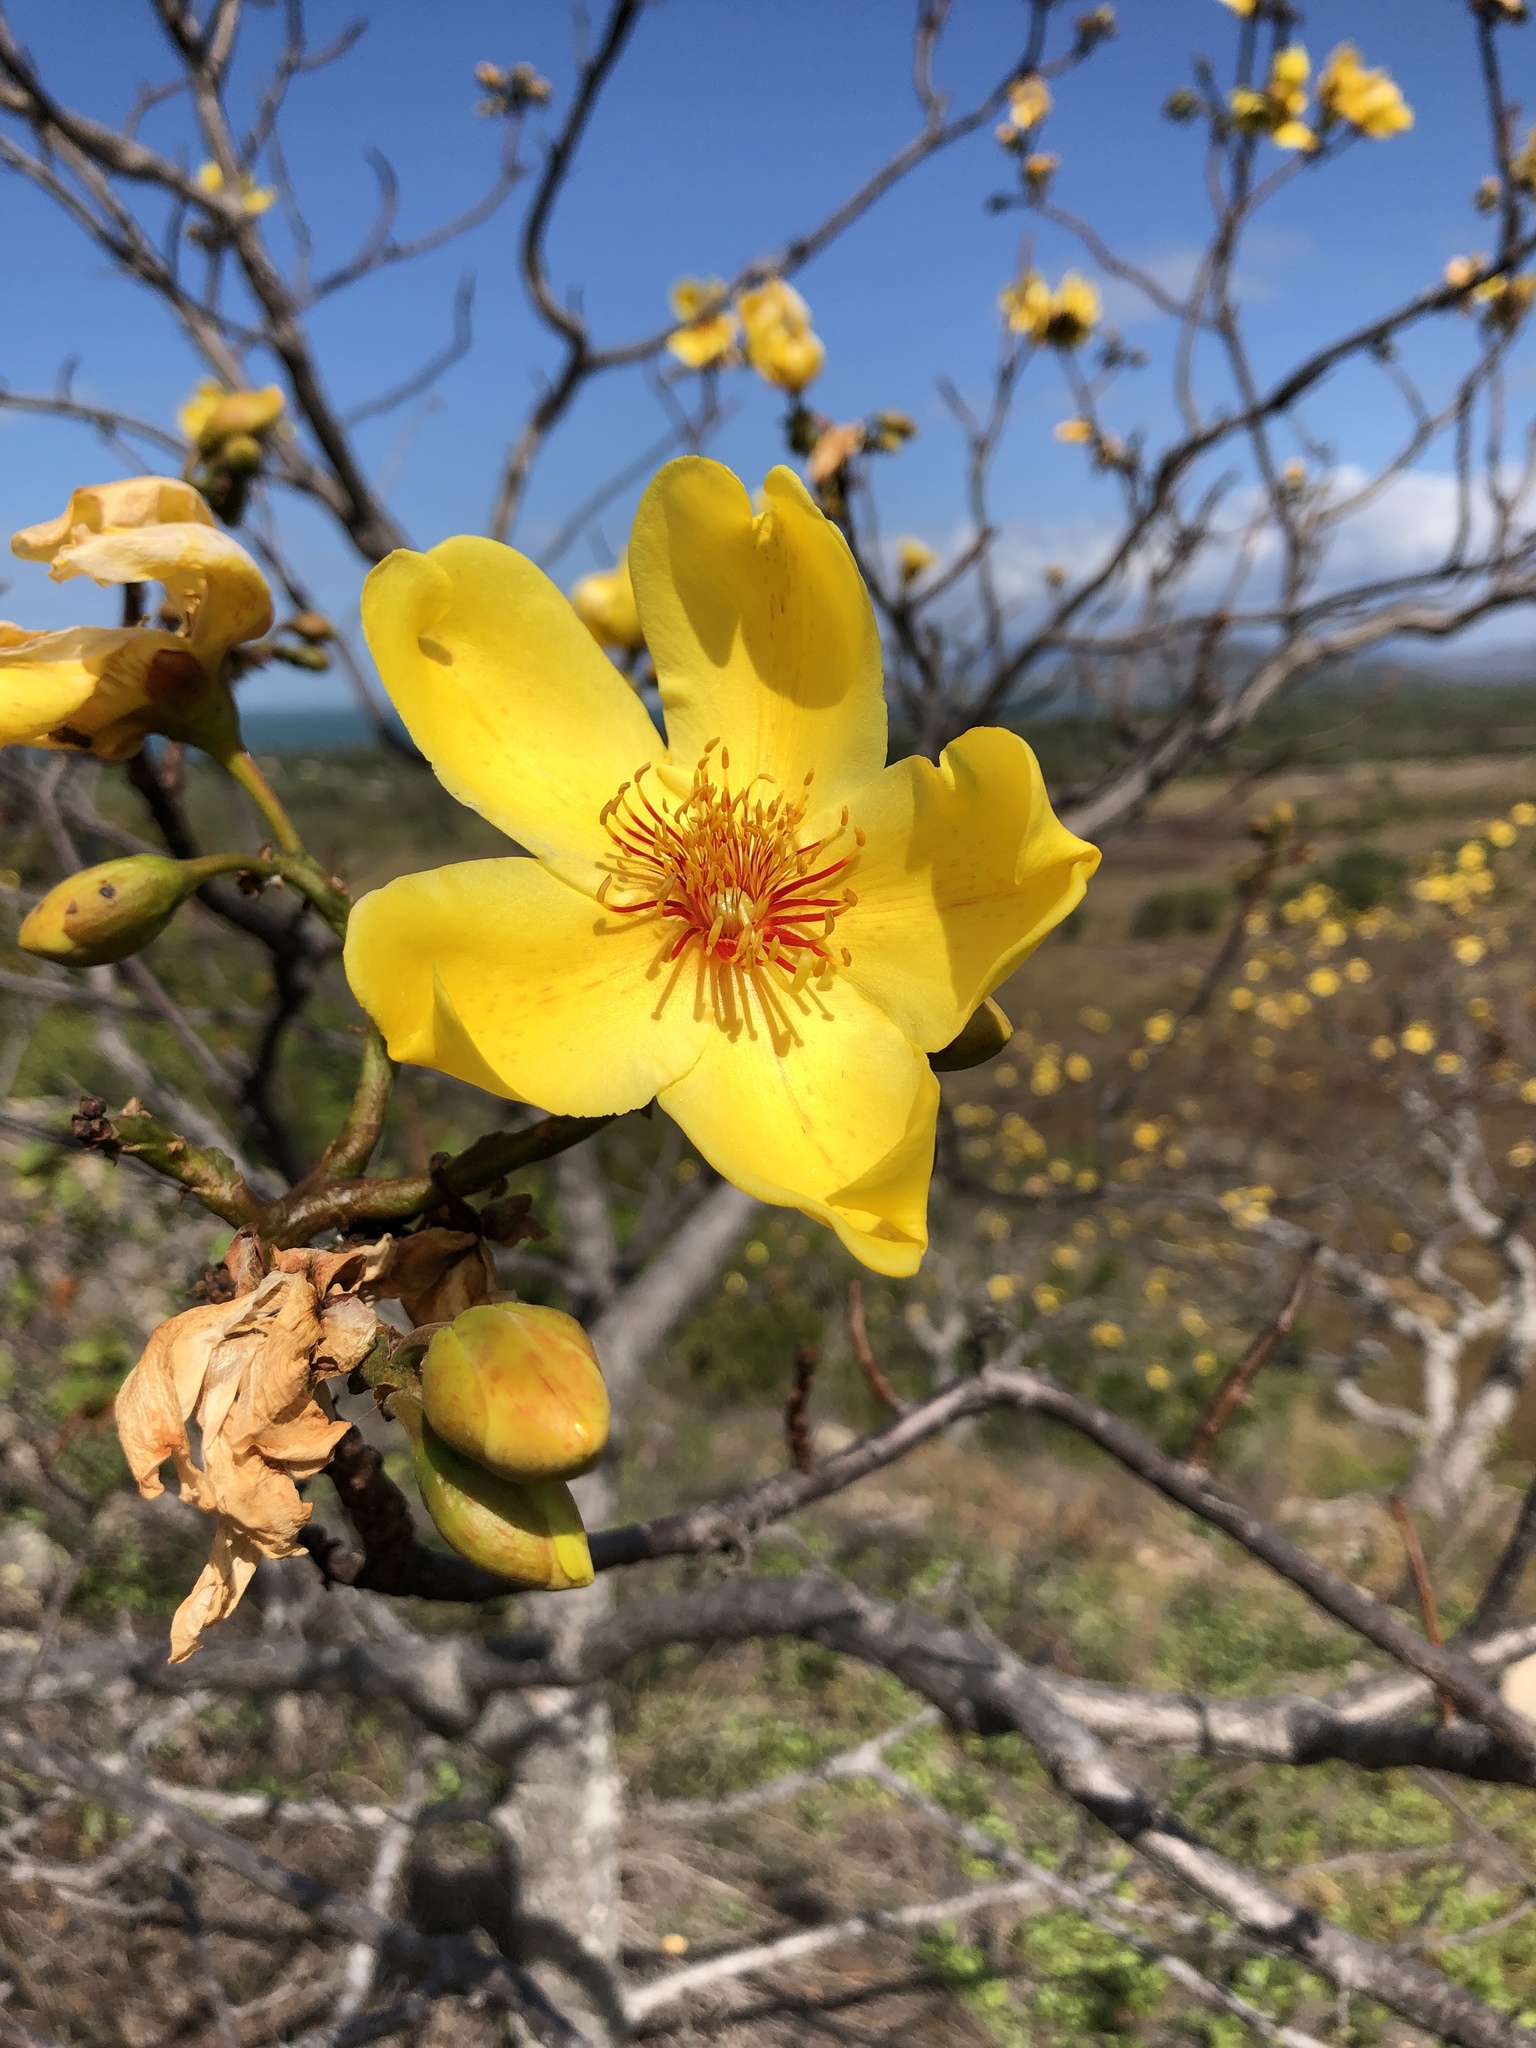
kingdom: Plantae
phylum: Tracheophyta
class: Magnoliopsida
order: Malvales
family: Cochlospermaceae
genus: Cochlospermum
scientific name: Cochlospermum gillivraei
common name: Cottontree
